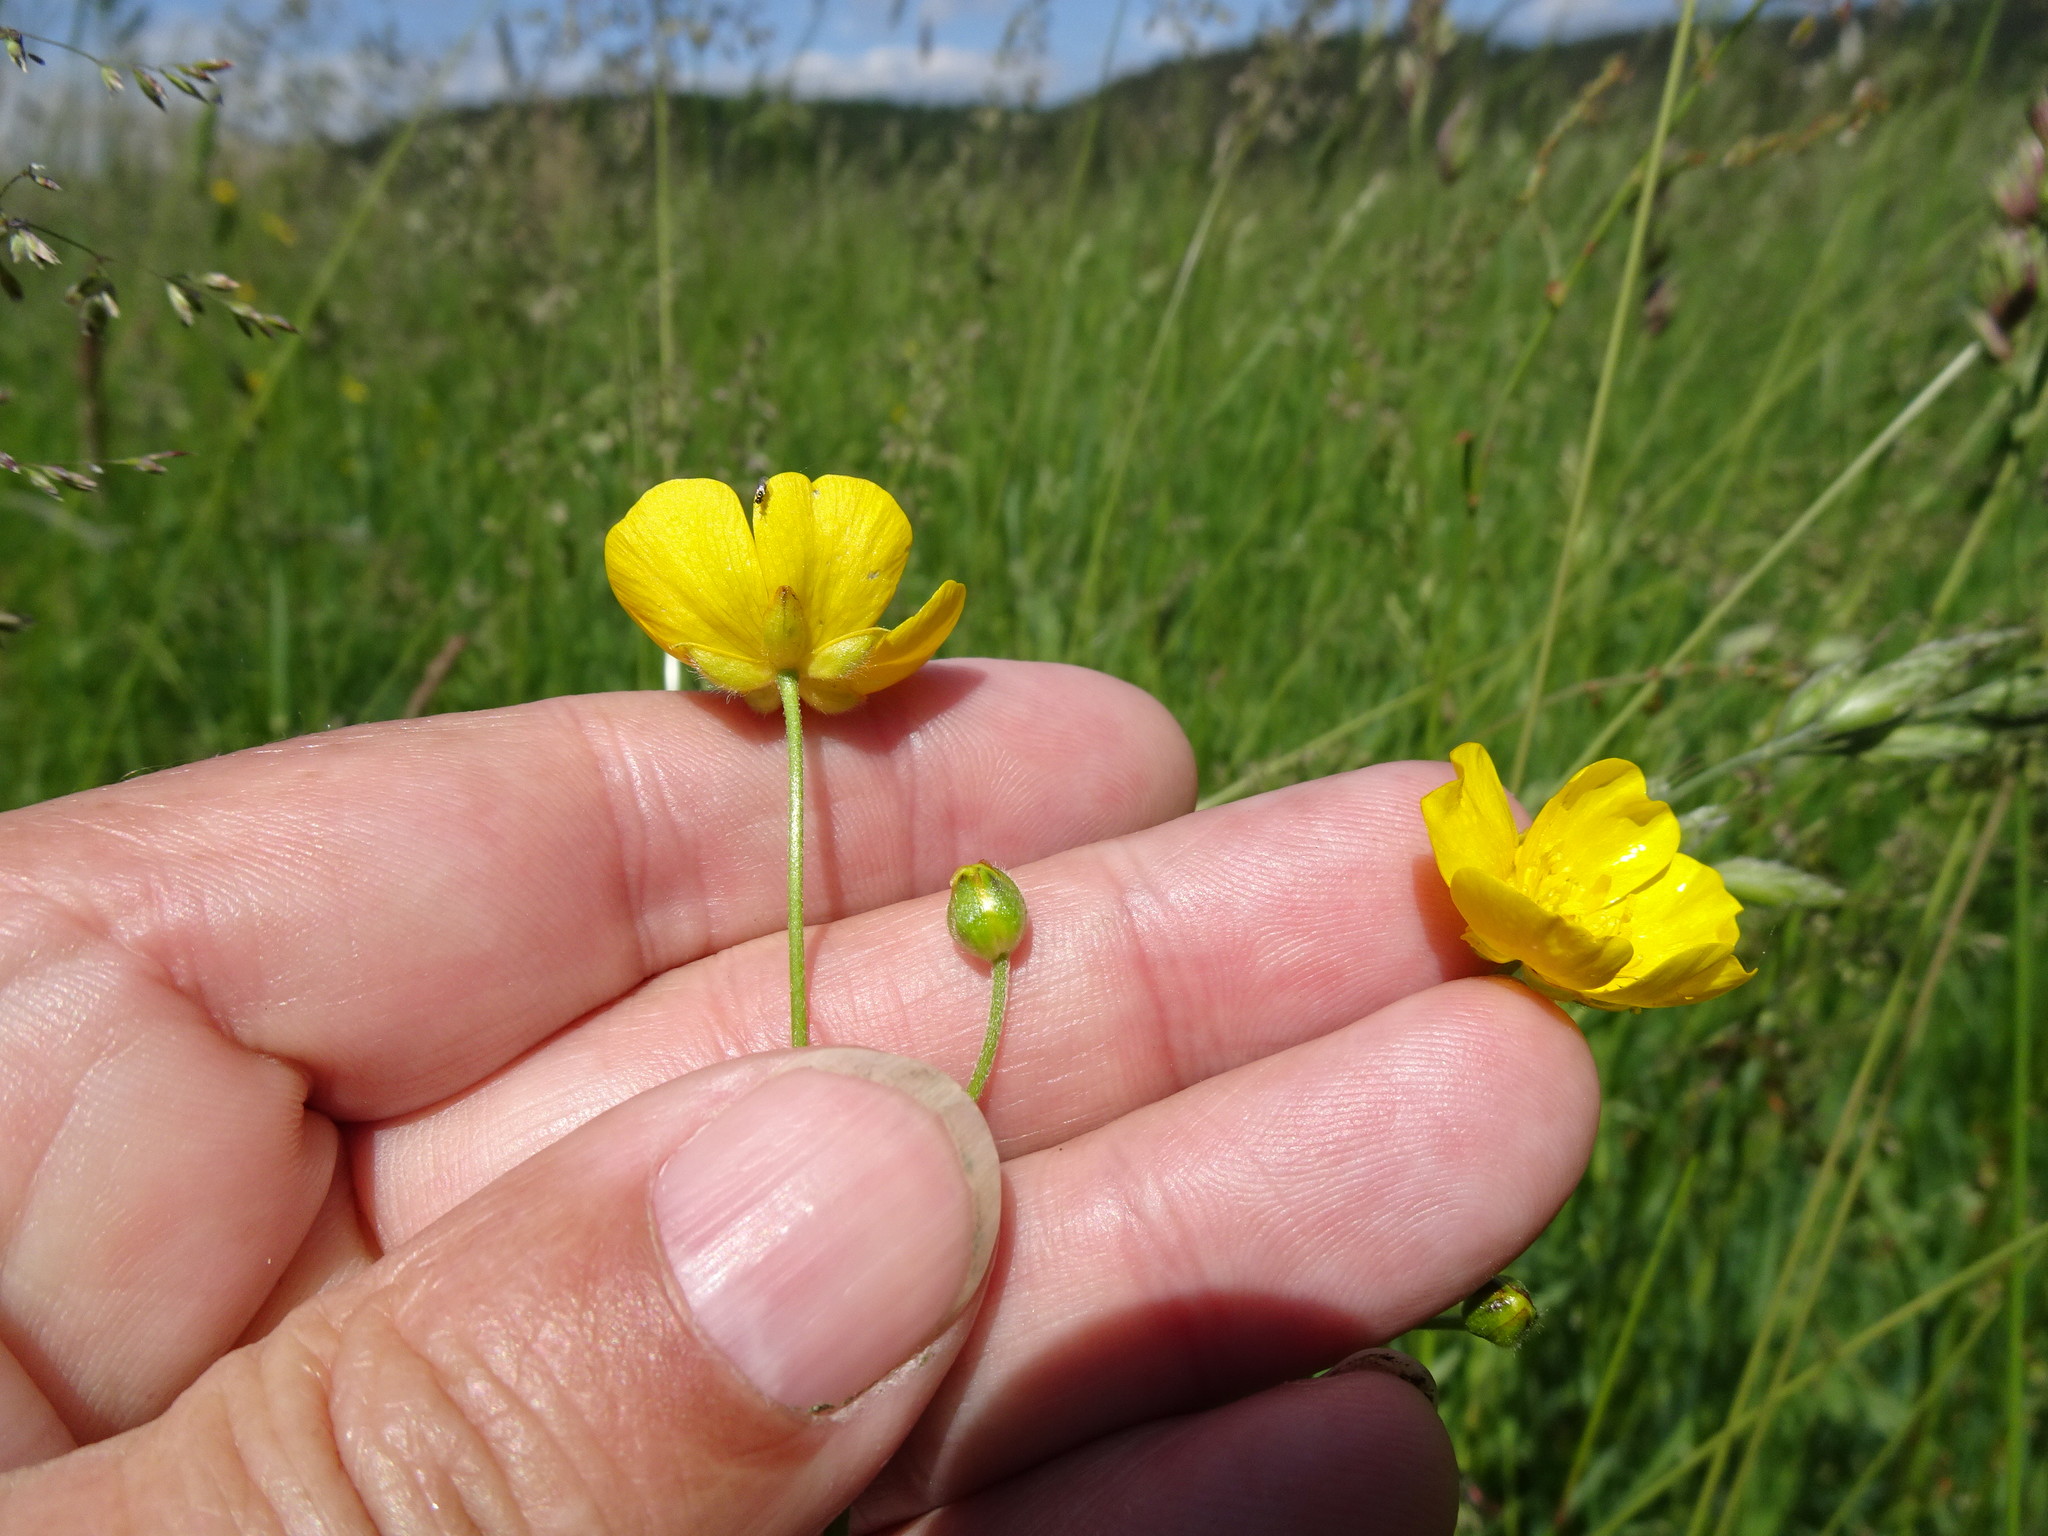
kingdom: Plantae
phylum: Tracheophyta
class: Magnoliopsida
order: Ranunculales
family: Ranunculaceae
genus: Ranunculus
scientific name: Ranunculus acris
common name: Meadow buttercup
